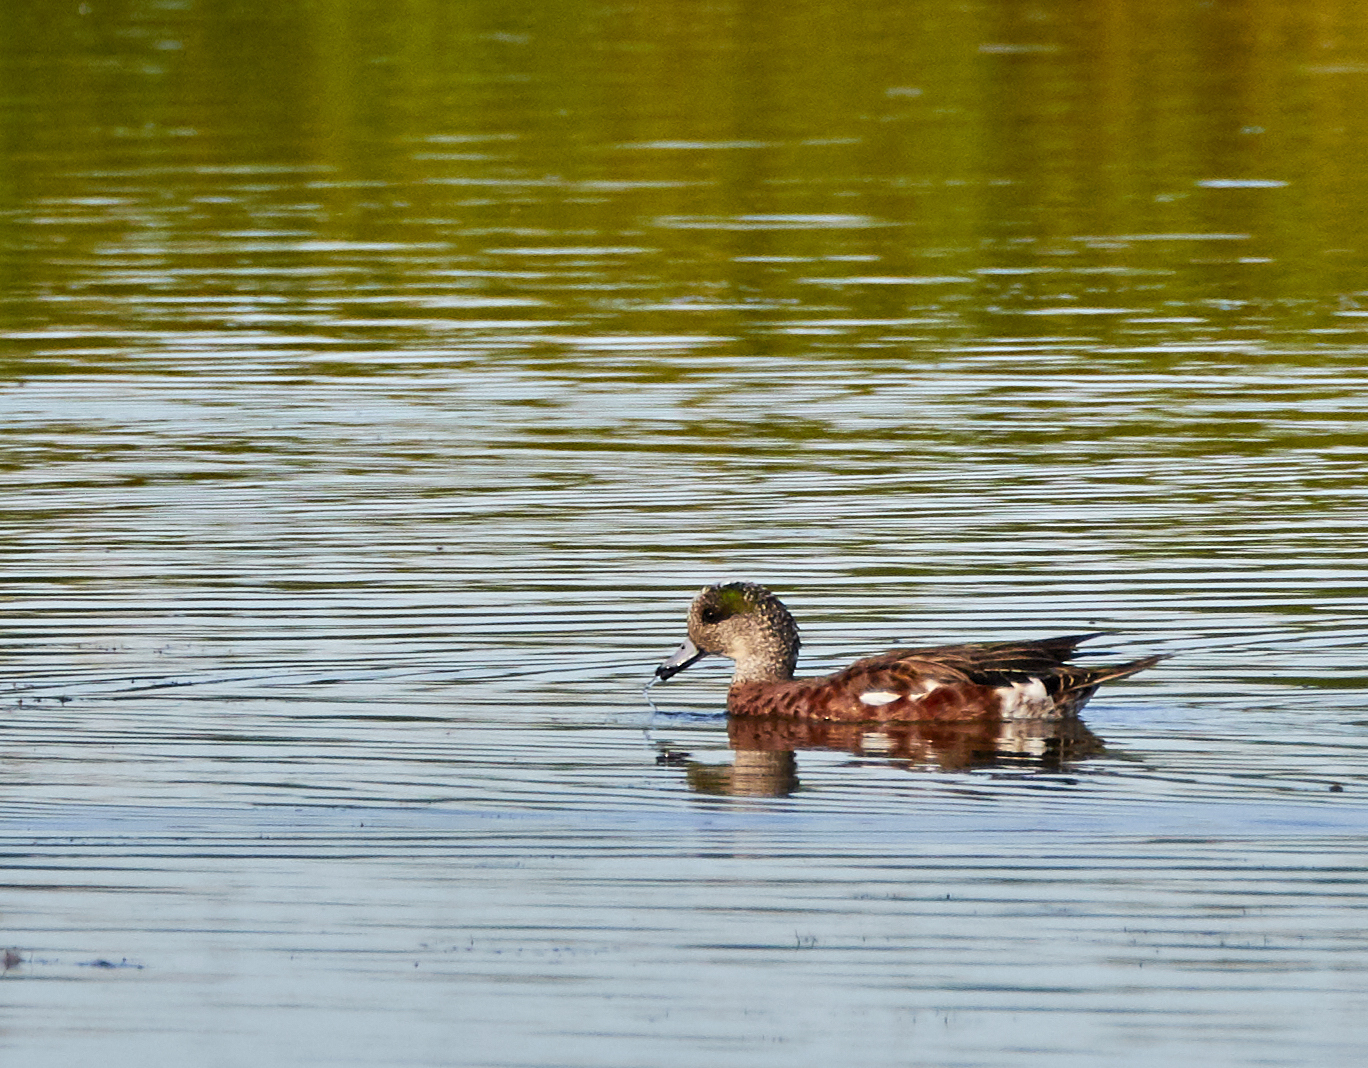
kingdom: Animalia
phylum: Chordata
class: Aves
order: Anseriformes
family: Anatidae
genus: Mareca
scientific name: Mareca americana
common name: American wigeon
